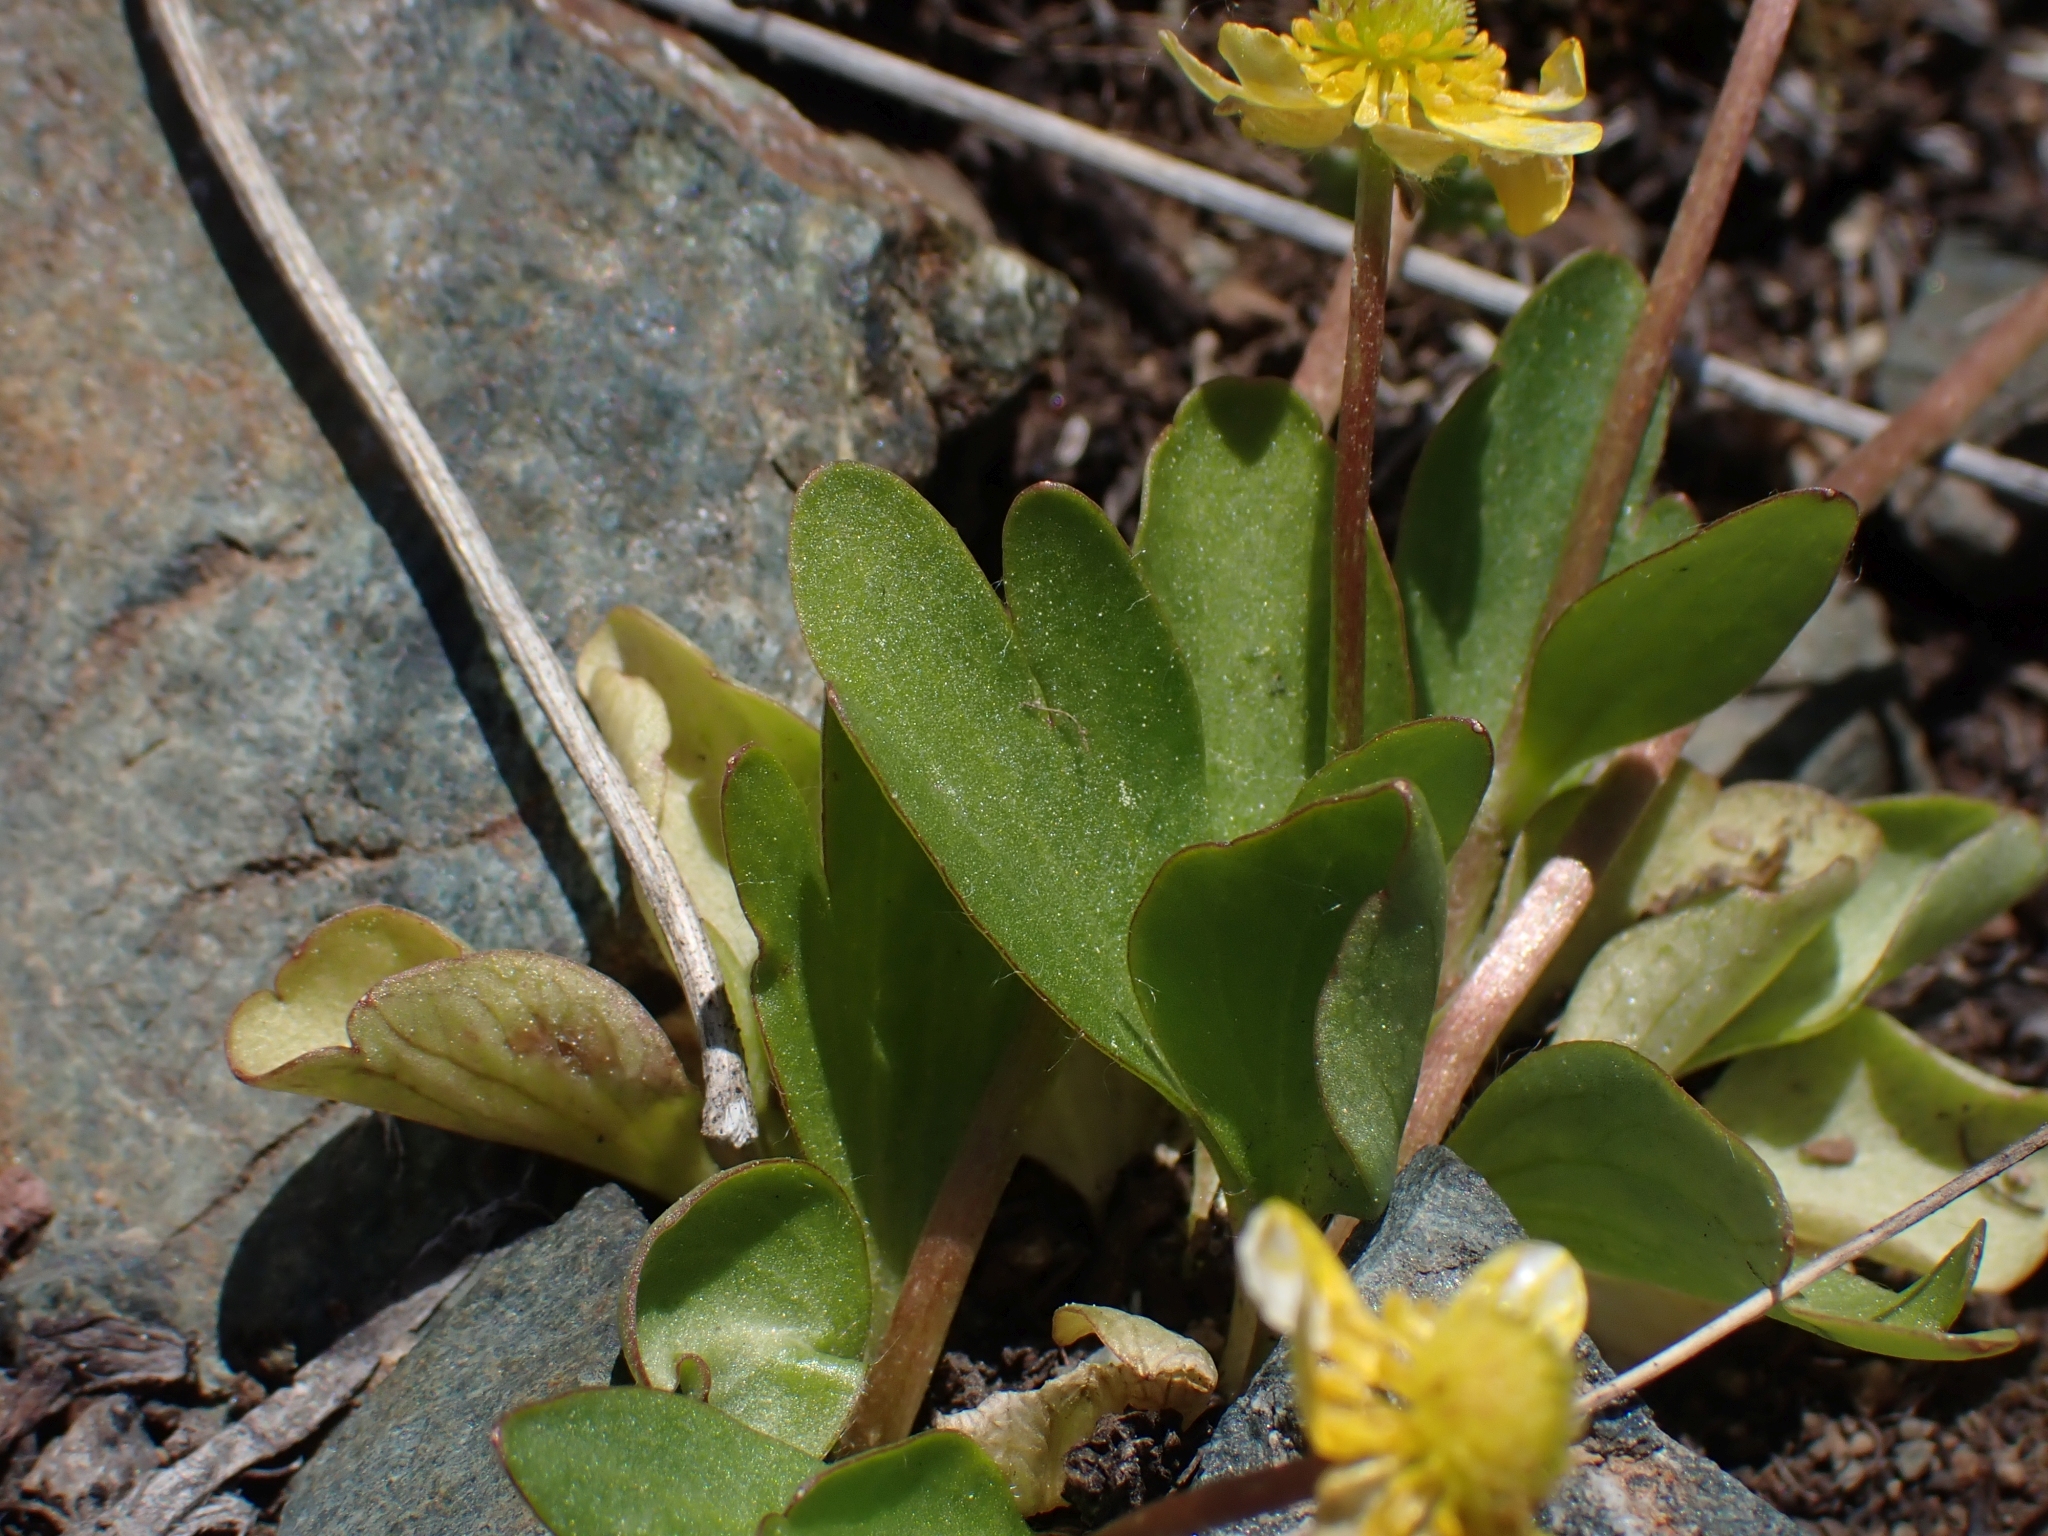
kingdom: Plantae
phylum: Tracheophyta
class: Magnoliopsida
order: Ranunculales
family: Ranunculaceae
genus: Ranunculus
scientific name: Ranunculus glaberrimus
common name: Sagebrush buttercup
